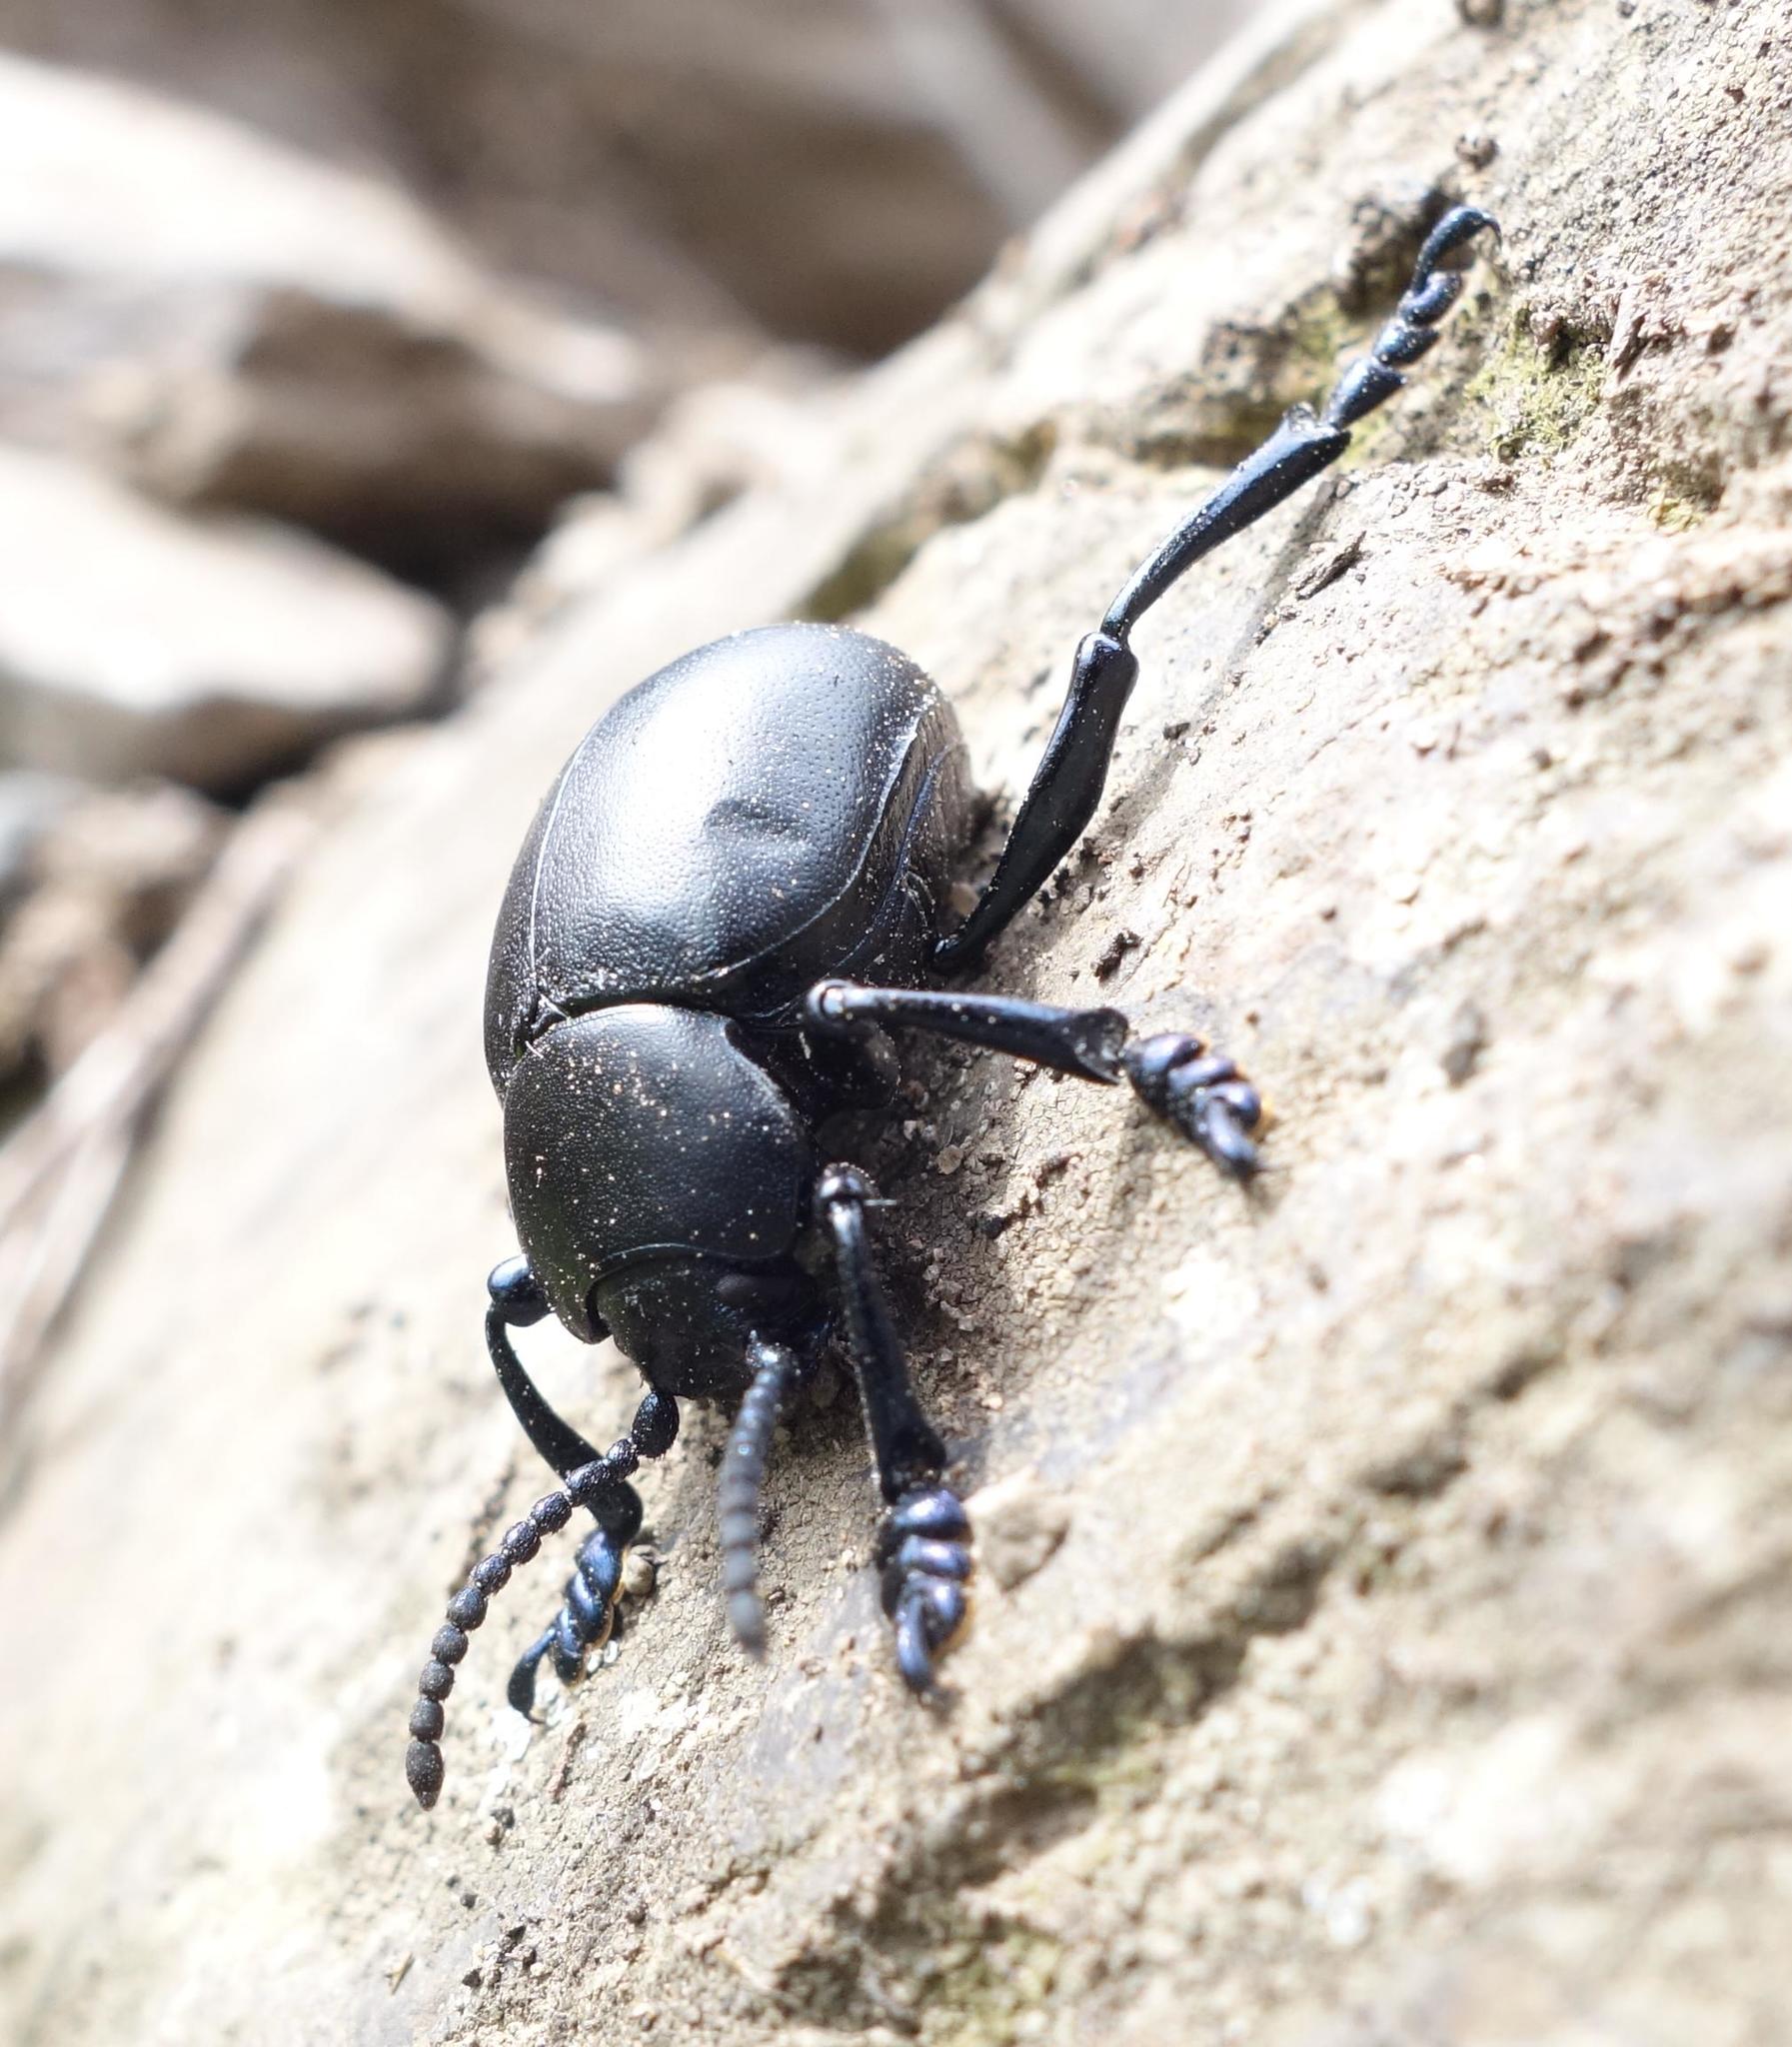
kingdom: Animalia
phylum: Arthropoda
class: Insecta
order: Coleoptera
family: Chrysomelidae
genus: Timarcha
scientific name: Timarcha tenebricosa
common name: Bloody-nosed beetle
